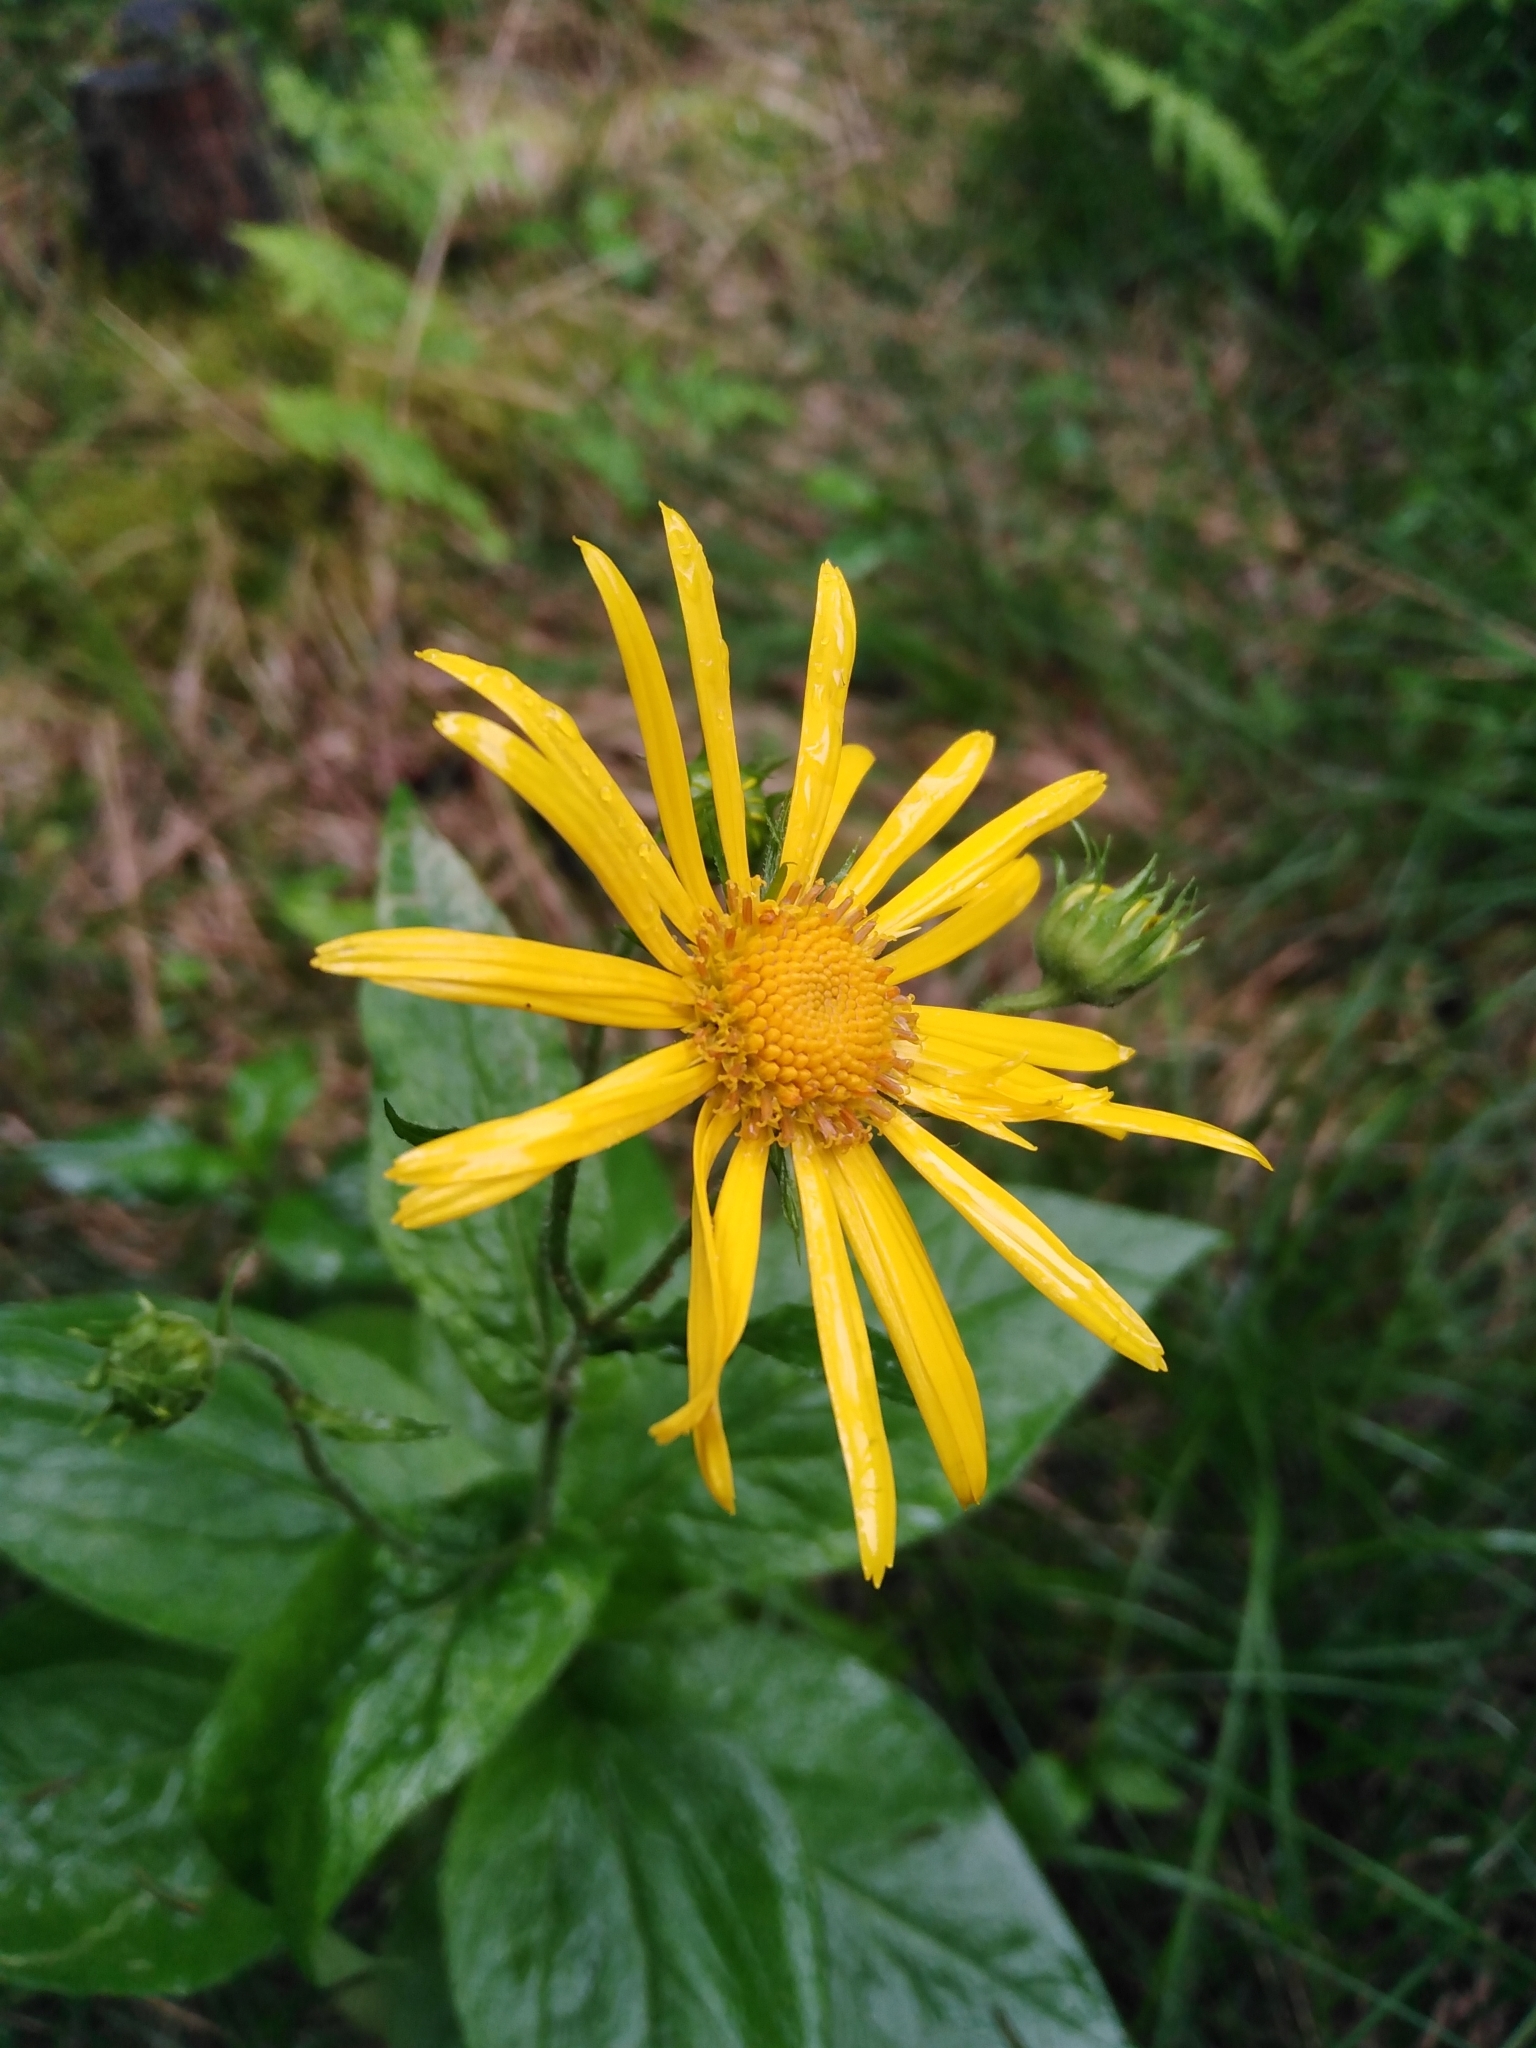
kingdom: Plantae
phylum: Tracheophyta
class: Magnoliopsida
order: Asterales
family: Asteraceae
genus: Doronicum
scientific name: Doronicum austriacum
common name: Austrian leopard's-bane
